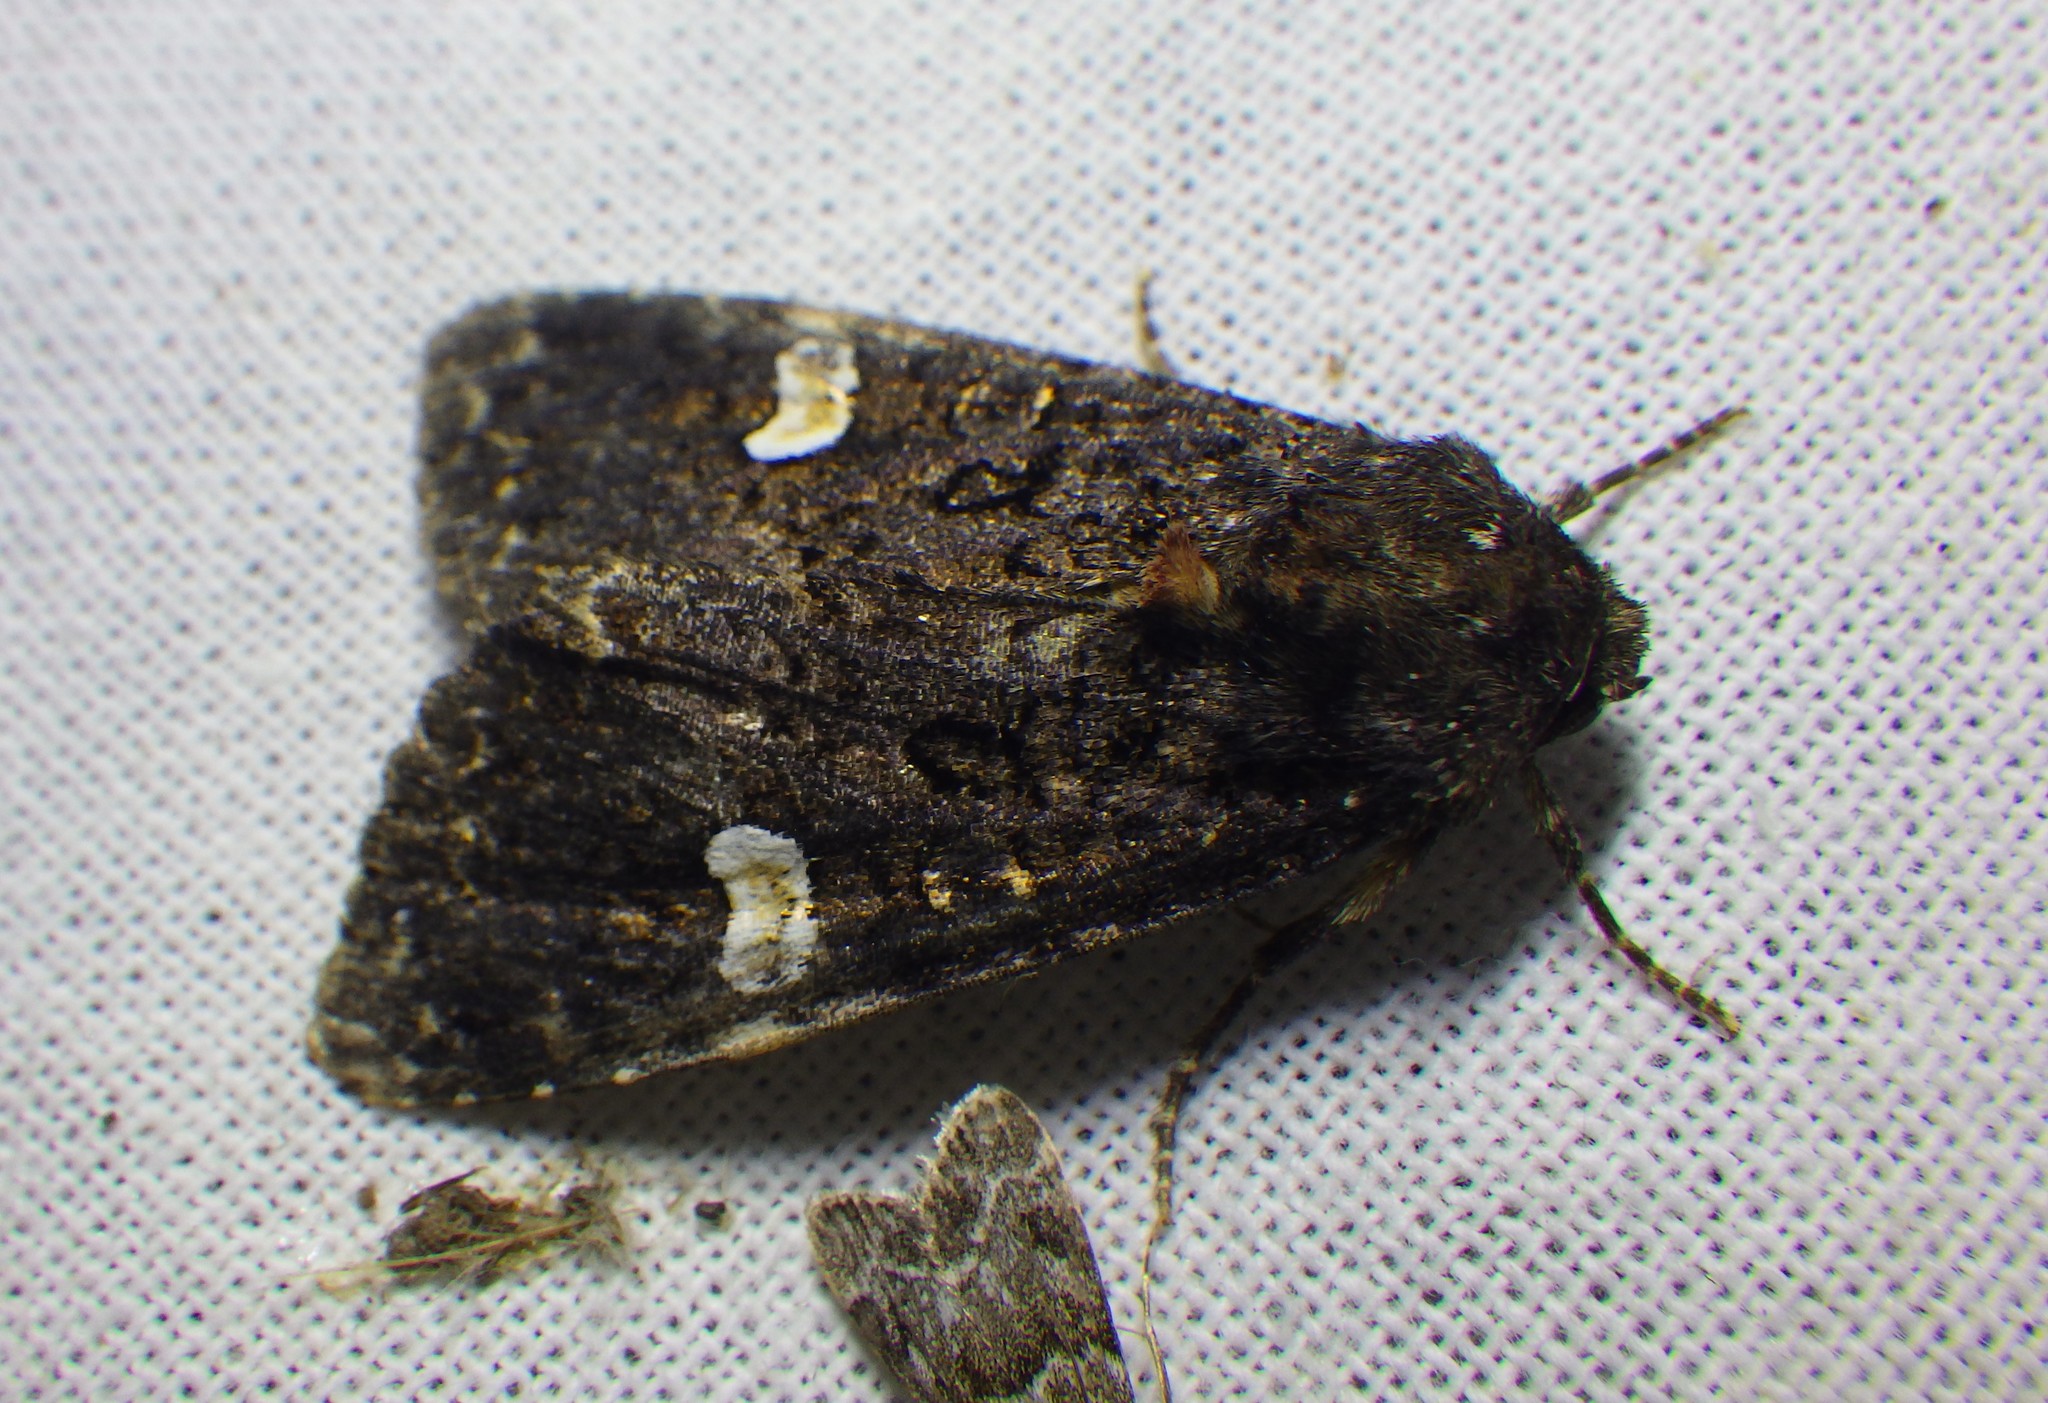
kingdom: Animalia
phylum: Arthropoda
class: Insecta
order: Lepidoptera
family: Noctuidae
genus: Melanchra
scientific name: Melanchra persicariae
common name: Dot moth
